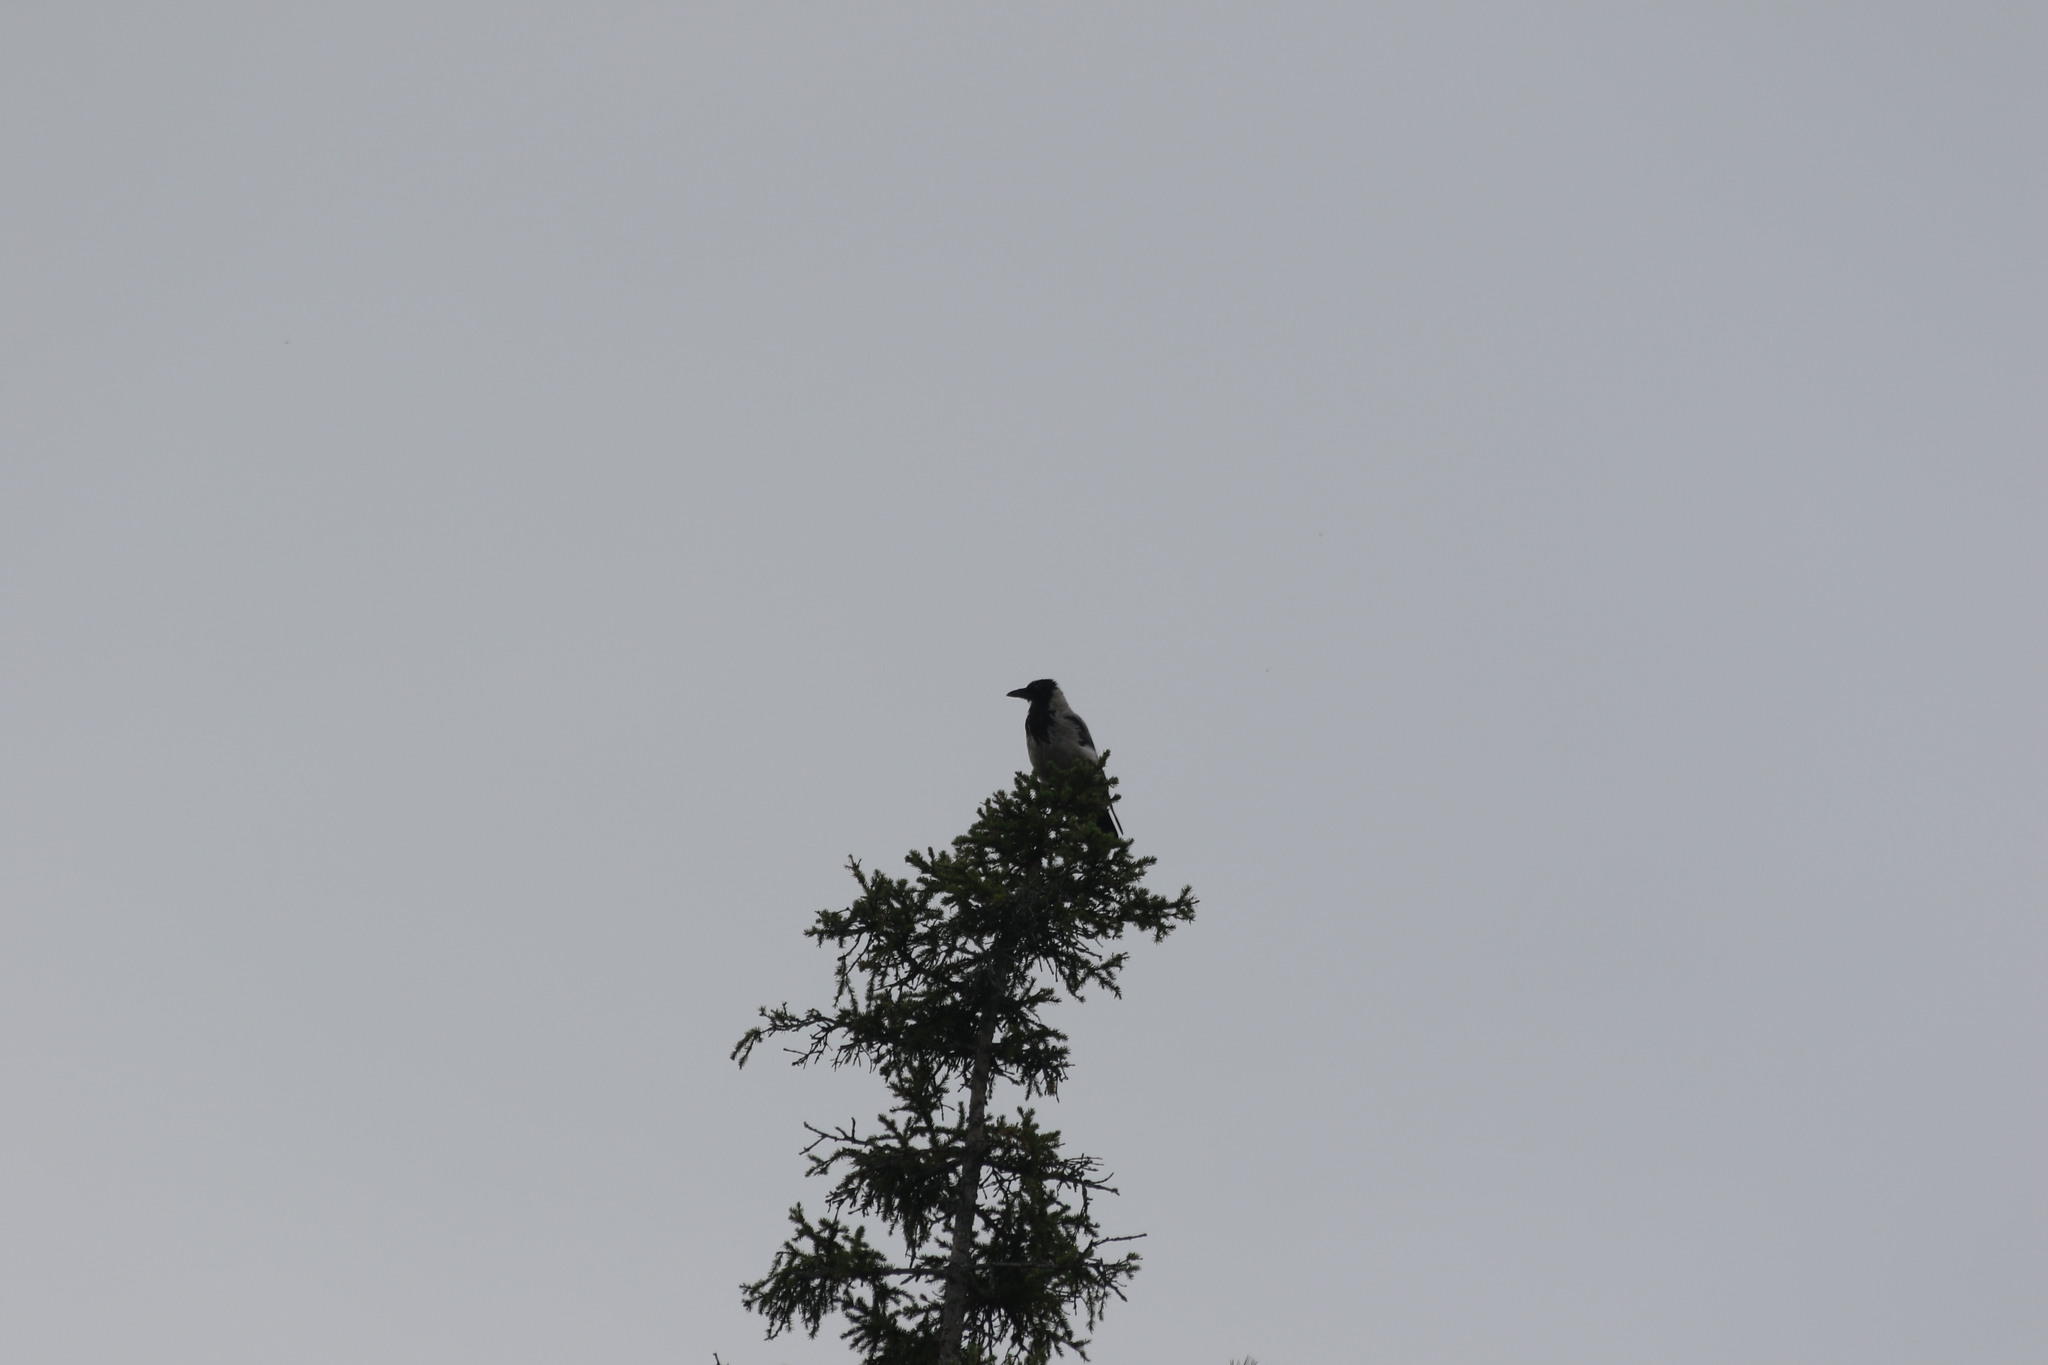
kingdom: Animalia
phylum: Chordata
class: Aves
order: Passeriformes
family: Corvidae
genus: Corvus
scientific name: Corvus cornix
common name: Hooded crow
